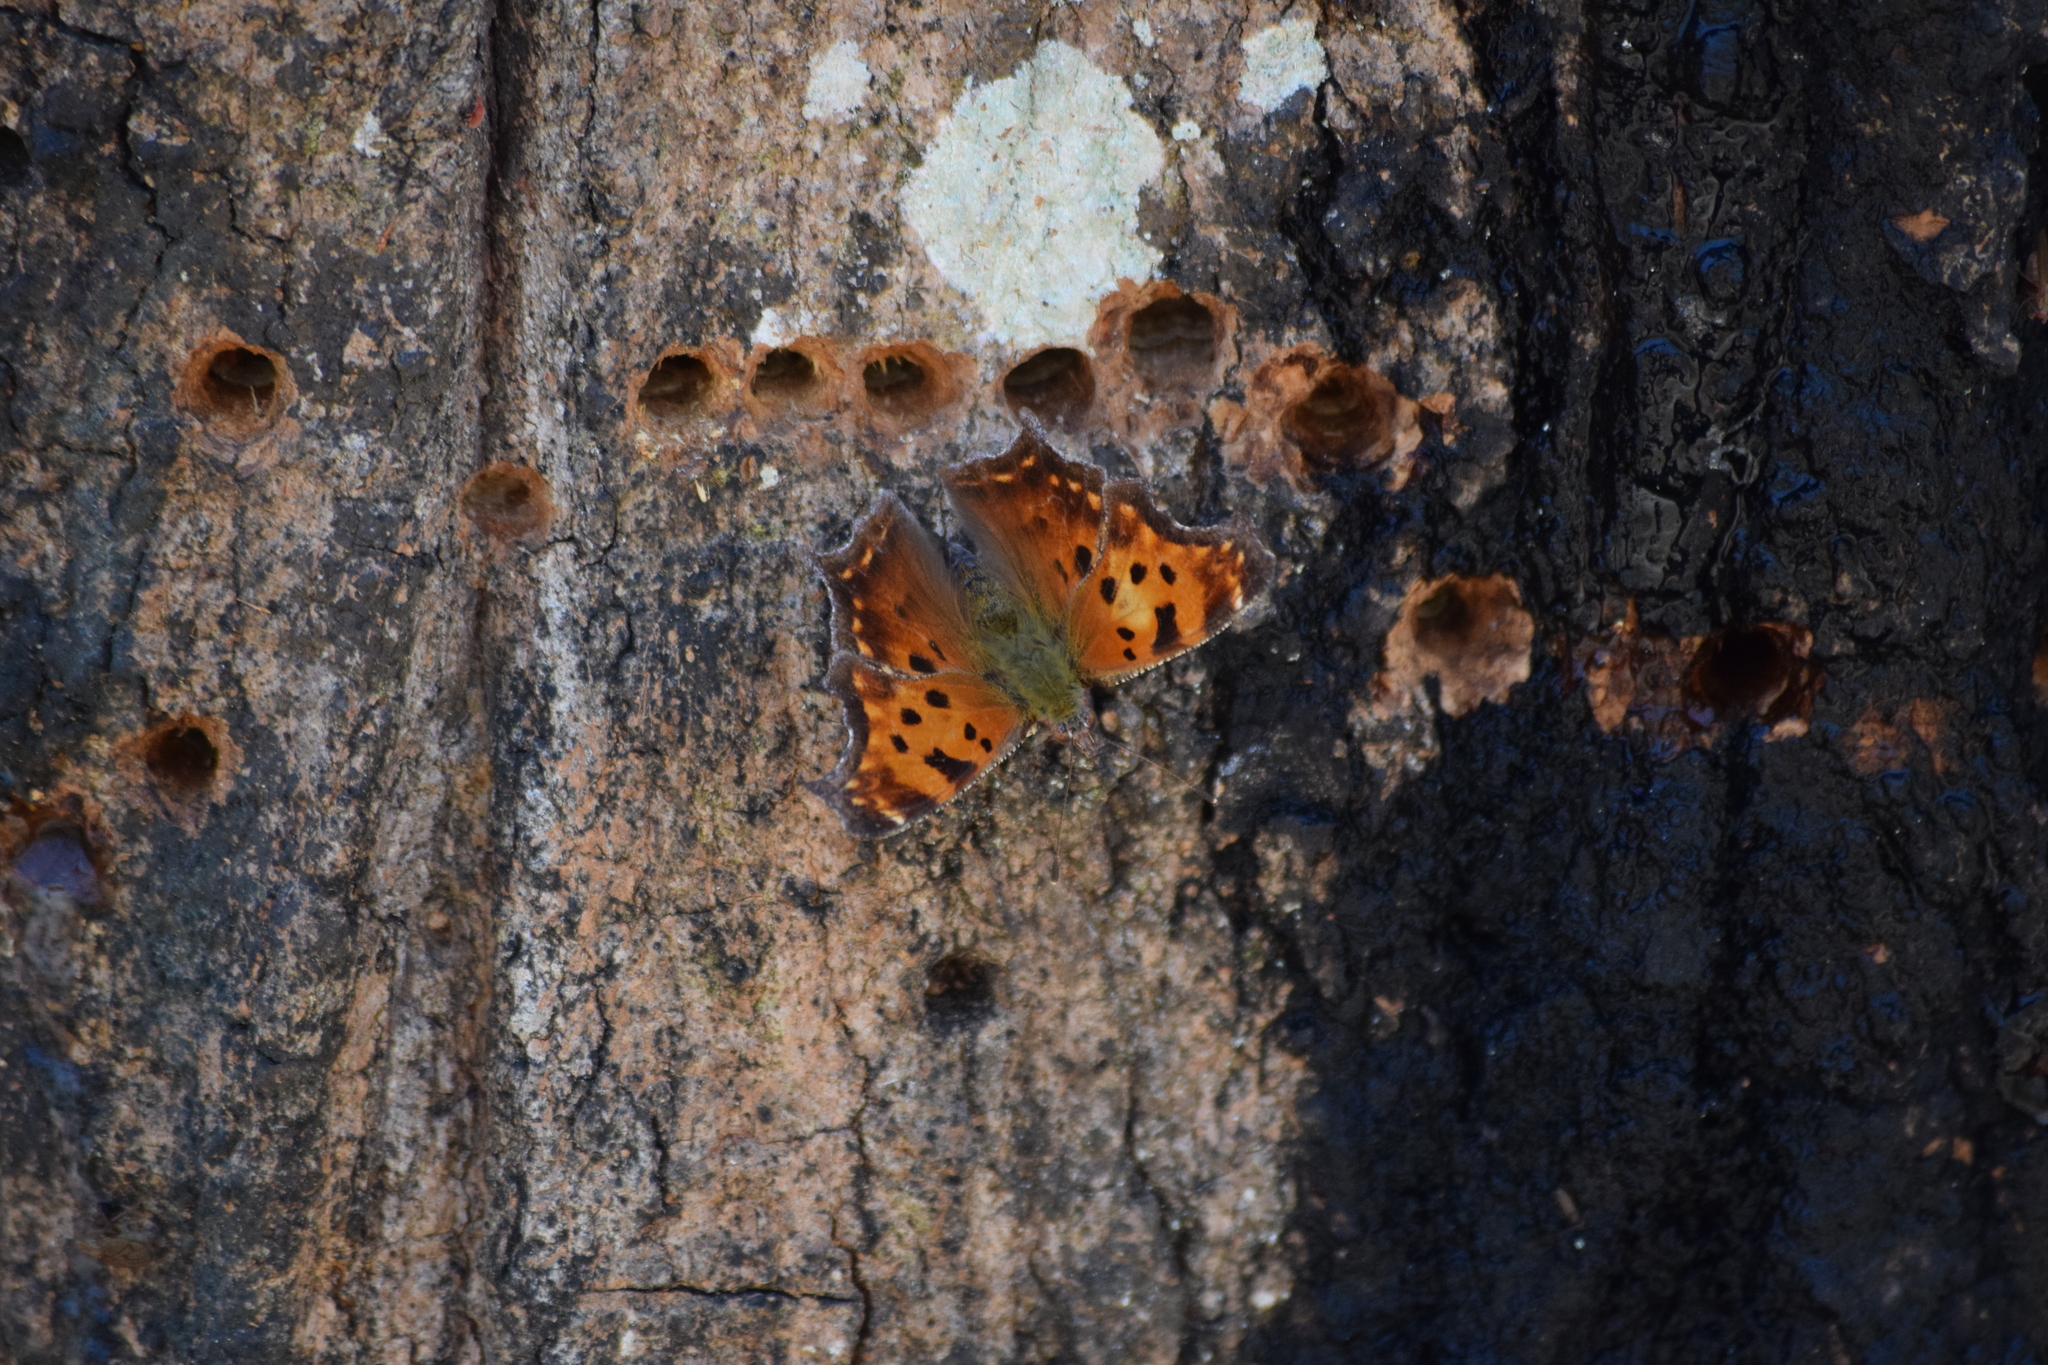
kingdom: Animalia
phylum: Arthropoda
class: Insecta
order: Lepidoptera
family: Nymphalidae
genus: Polygonia
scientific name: Polygonia comma
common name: Eastern comma
